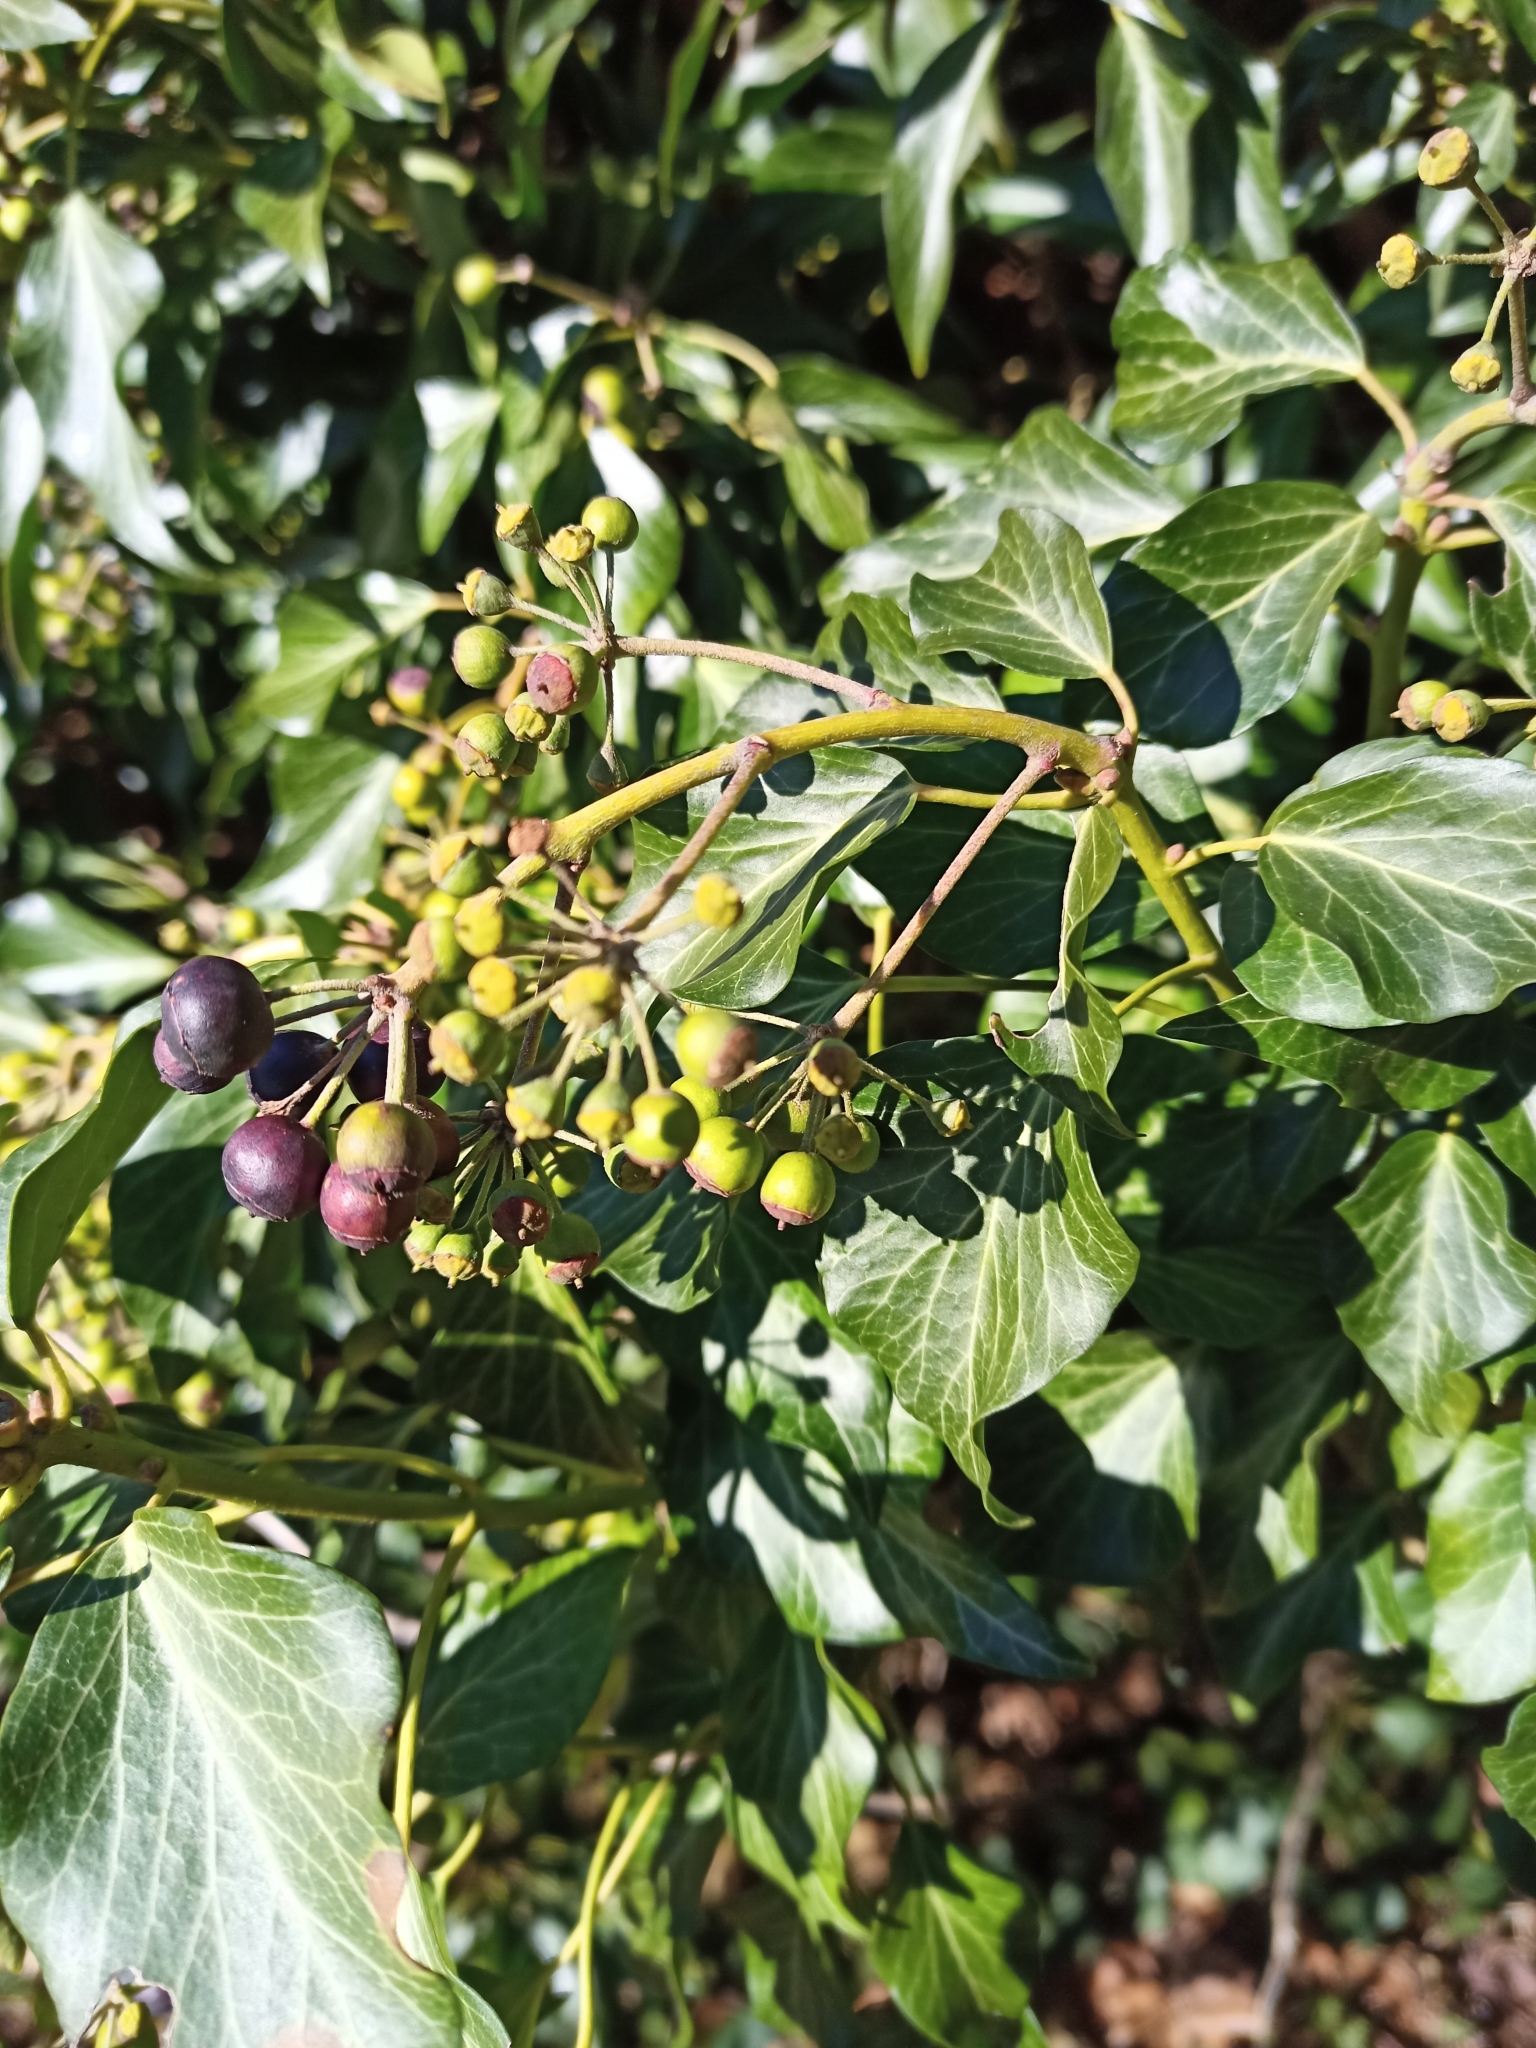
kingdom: Plantae
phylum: Tracheophyta
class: Magnoliopsida
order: Apiales
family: Araliaceae
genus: Hedera
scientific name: Hedera helix
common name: Ivy
